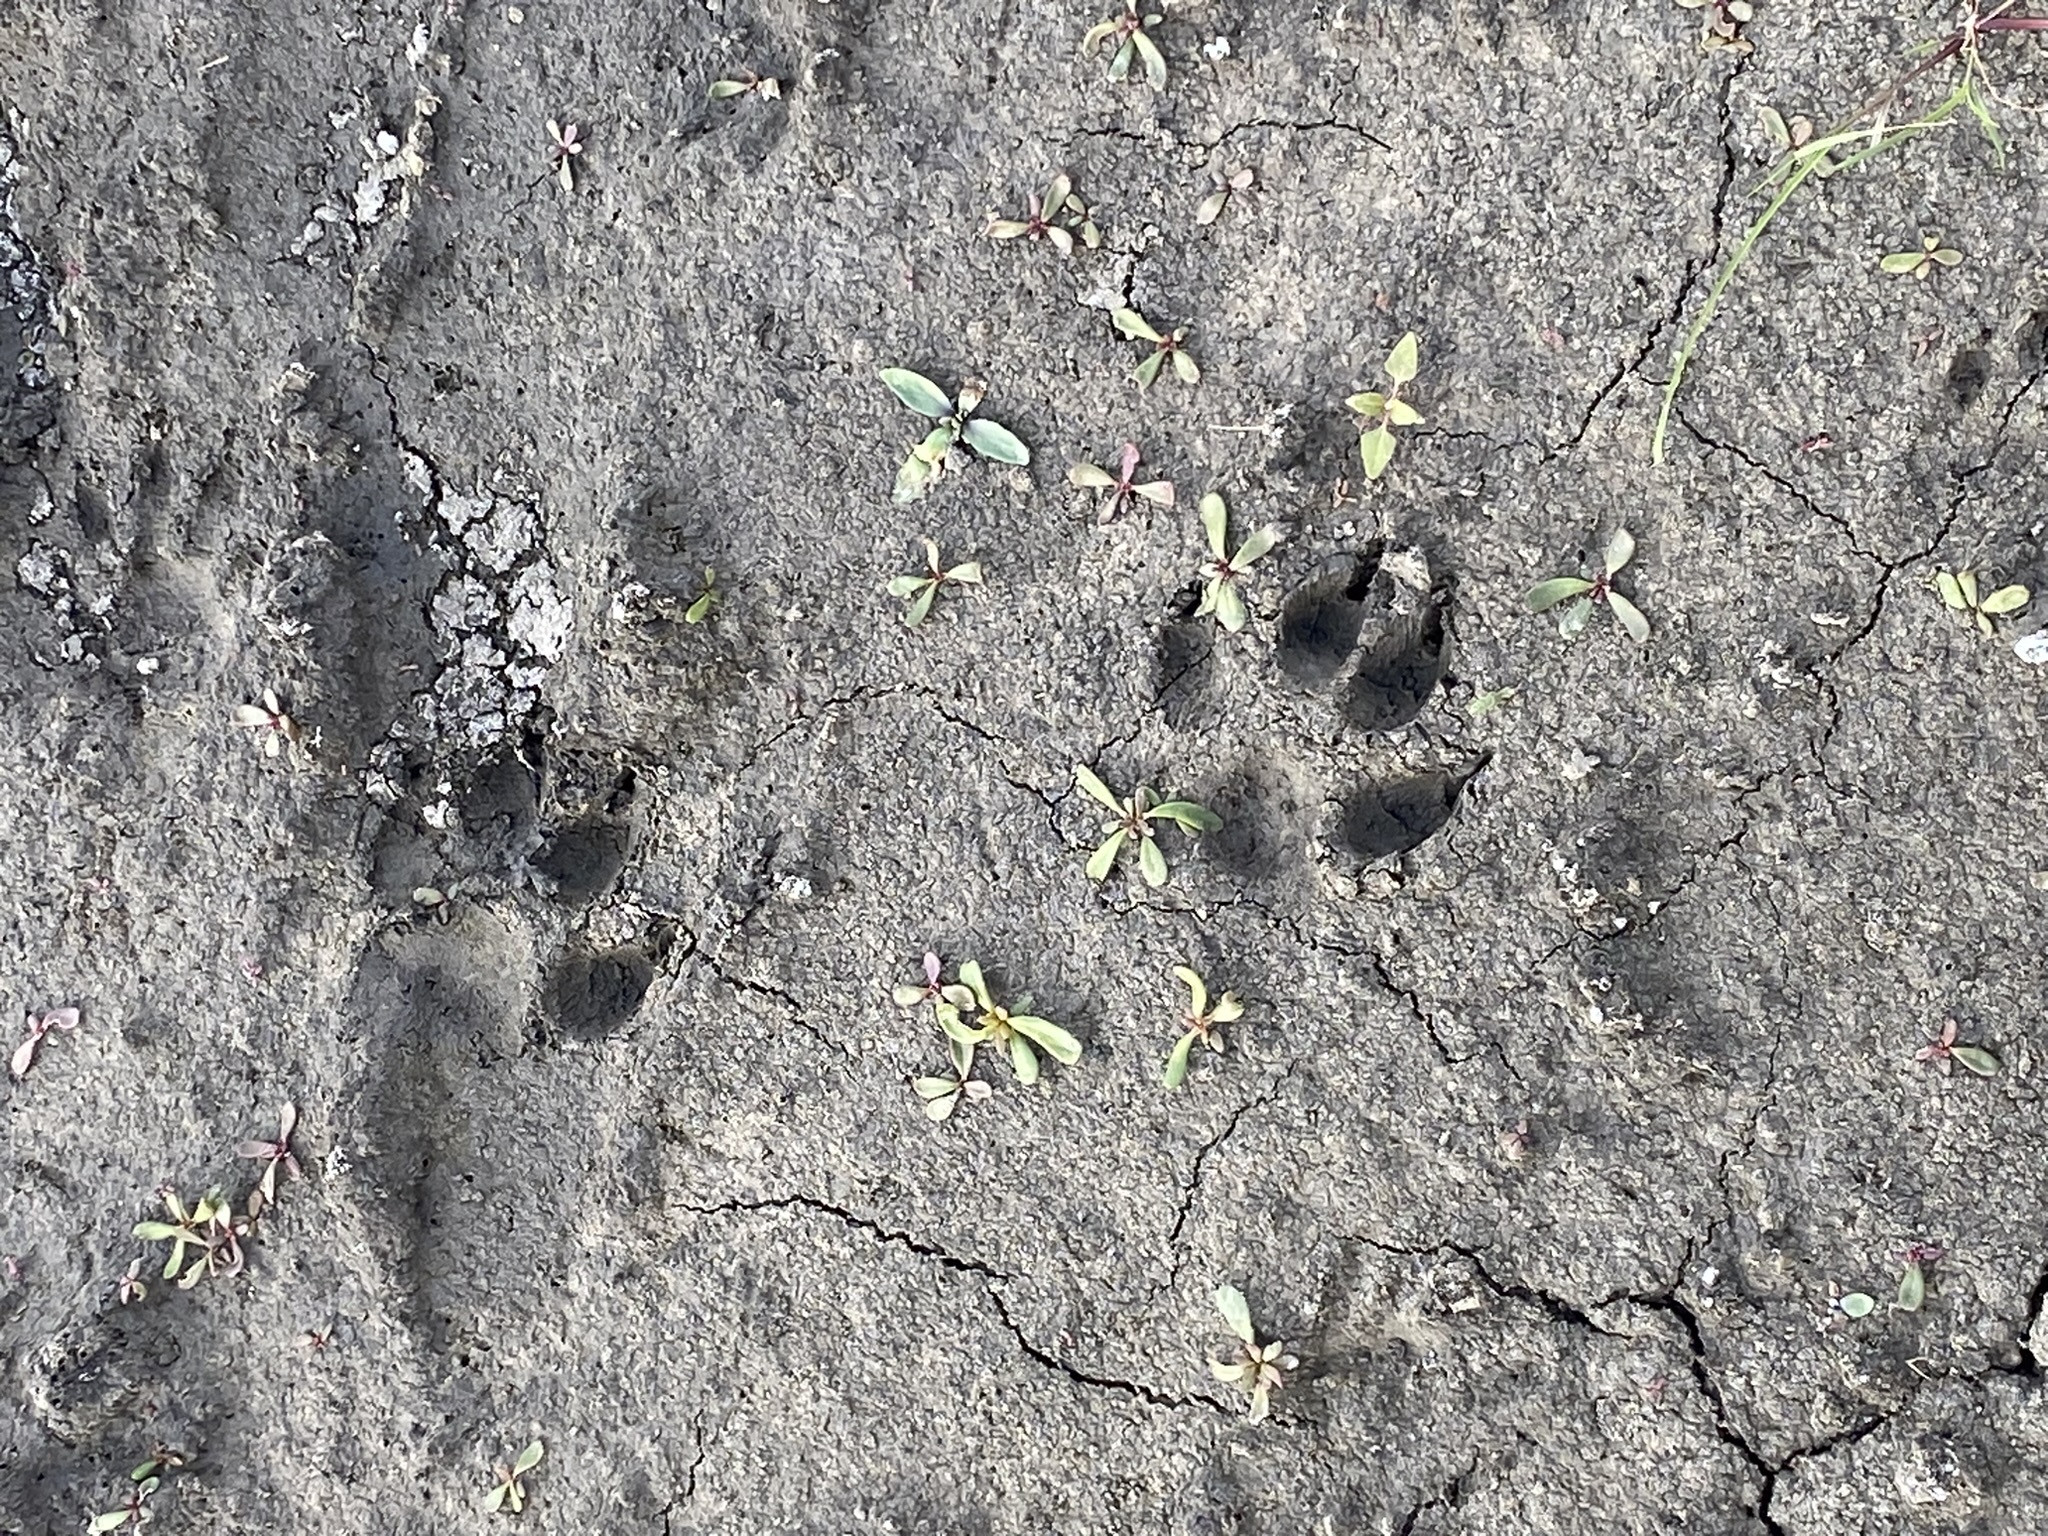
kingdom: Animalia
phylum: Chordata
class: Mammalia
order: Carnivora
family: Canidae
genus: Chrysocyon
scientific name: Chrysocyon brachyurus
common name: Maned wolf
